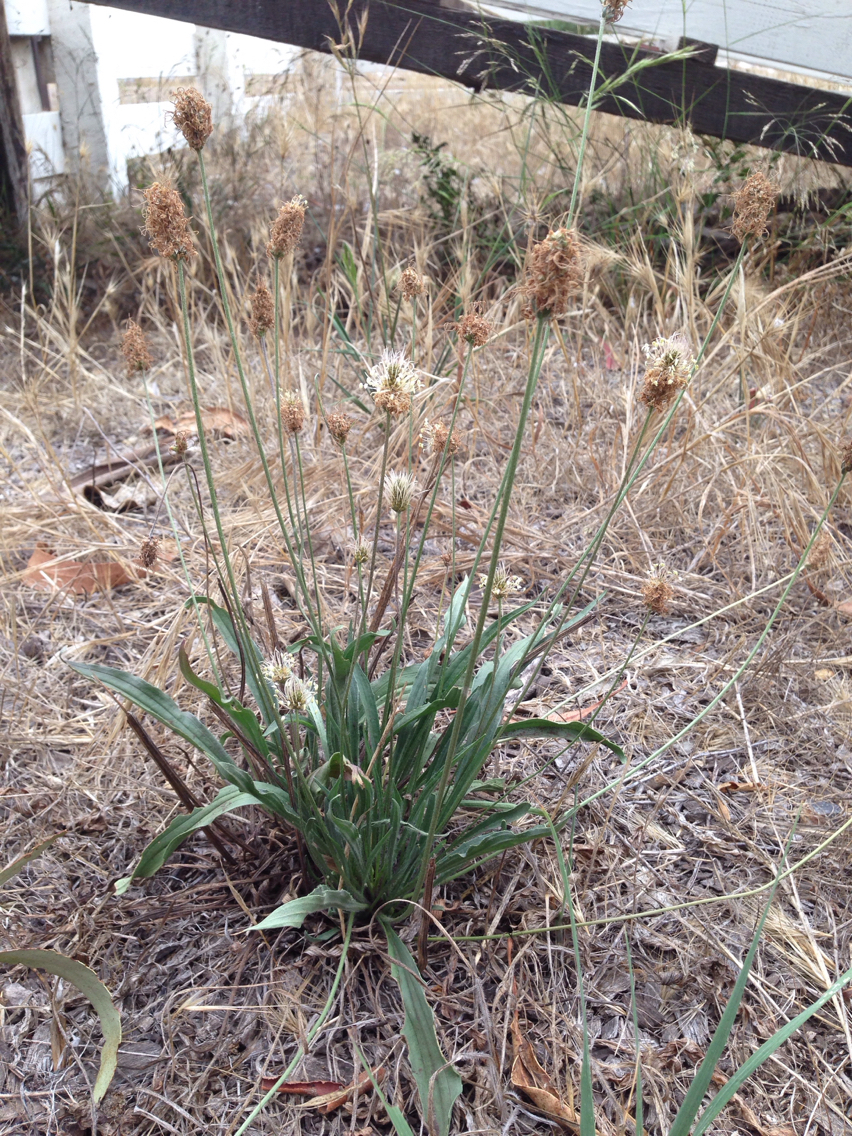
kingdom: Plantae
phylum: Tracheophyta
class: Magnoliopsida
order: Lamiales
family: Plantaginaceae
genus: Plantago
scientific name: Plantago lanceolata
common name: Ribwort plantain
